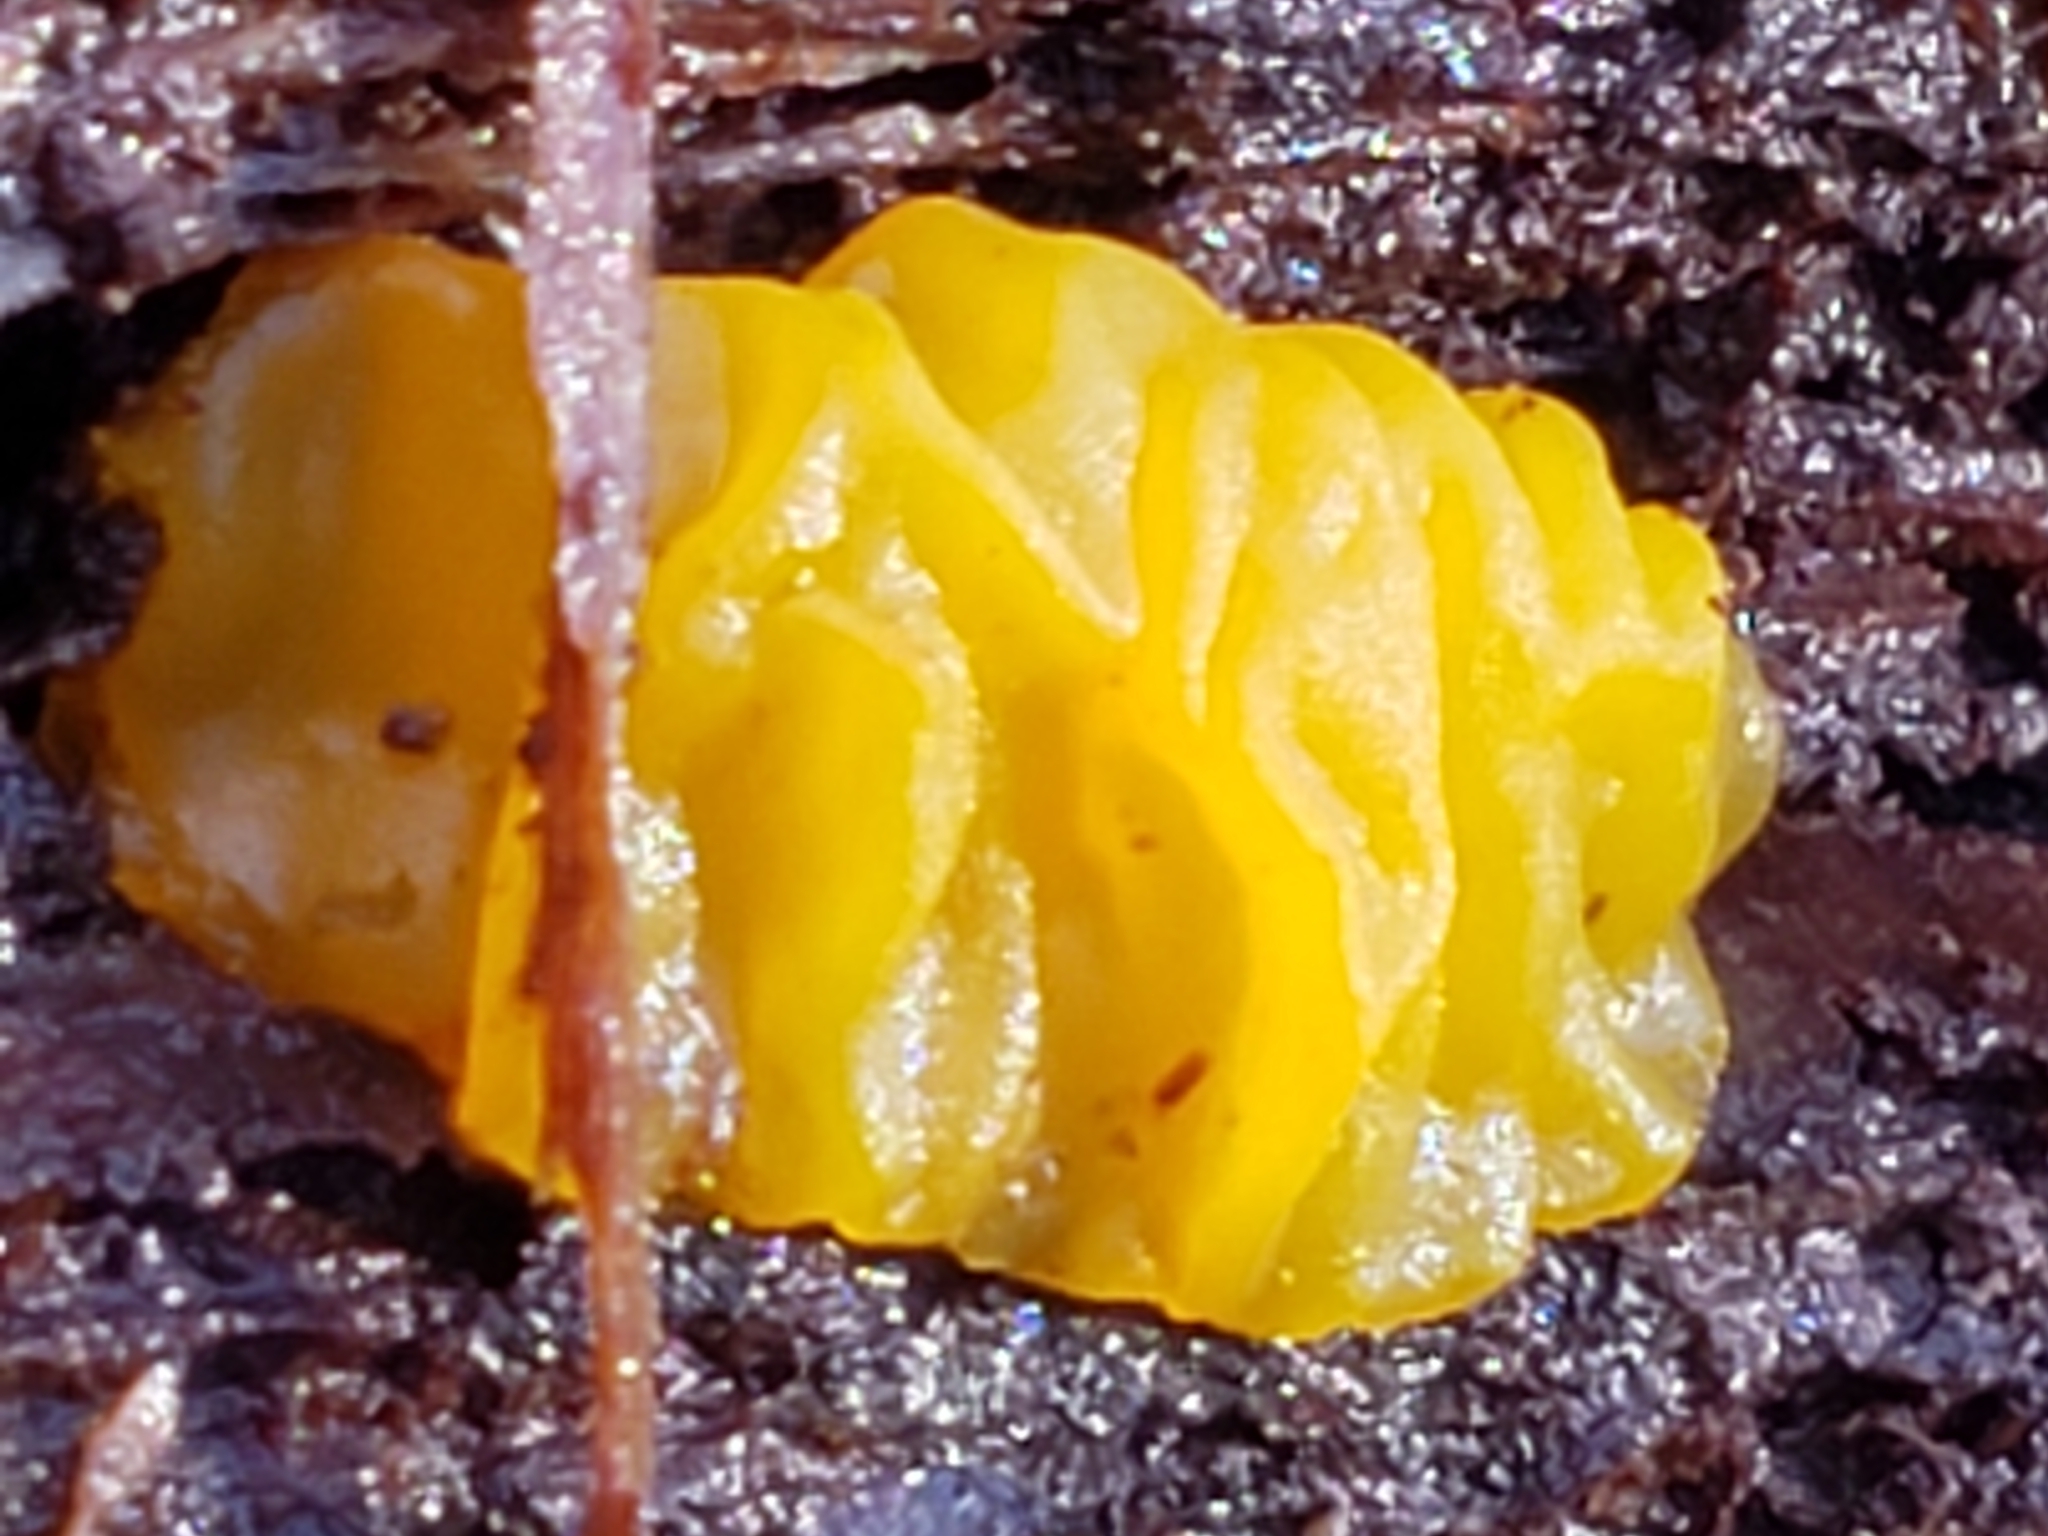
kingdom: Fungi
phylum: Basidiomycota
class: Dacrymycetes
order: Dacrymycetales
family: Dacrymycetaceae
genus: Dacrymyces
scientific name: Dacrymyces chrysospermus
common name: Orange jelly spot
